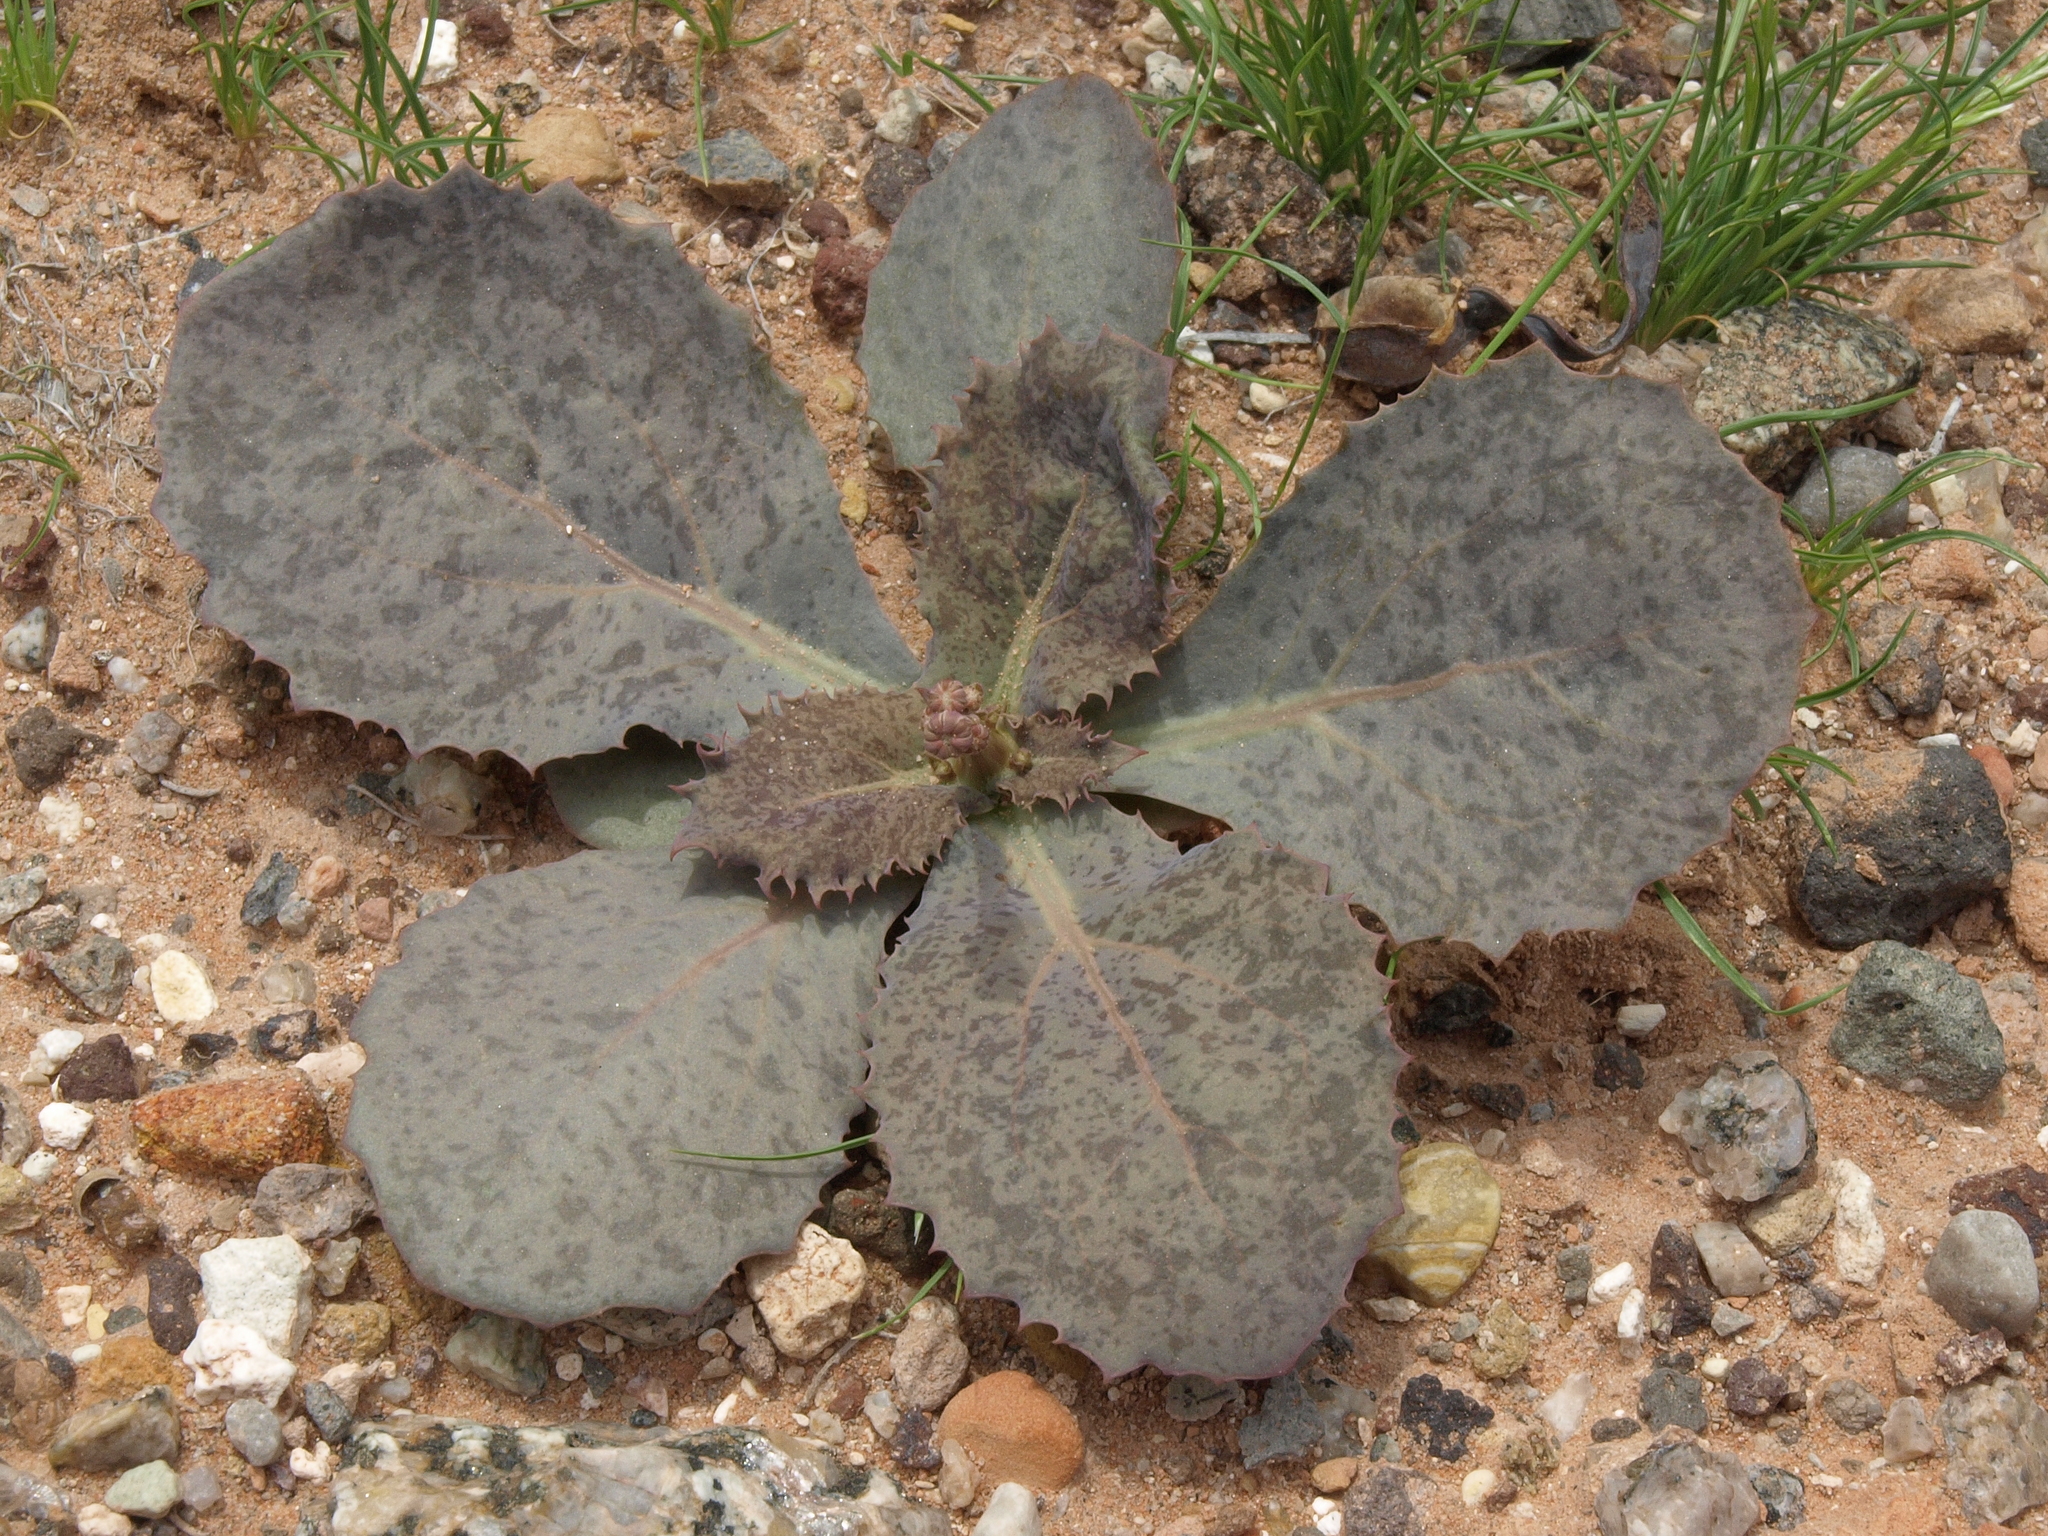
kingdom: Plantae
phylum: Tracheophyta
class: Magnoliopsida
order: Asterales
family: Asteraceae
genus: Atrichoseris
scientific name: Atrichoseris platyphylla
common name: Tobaccoweed
